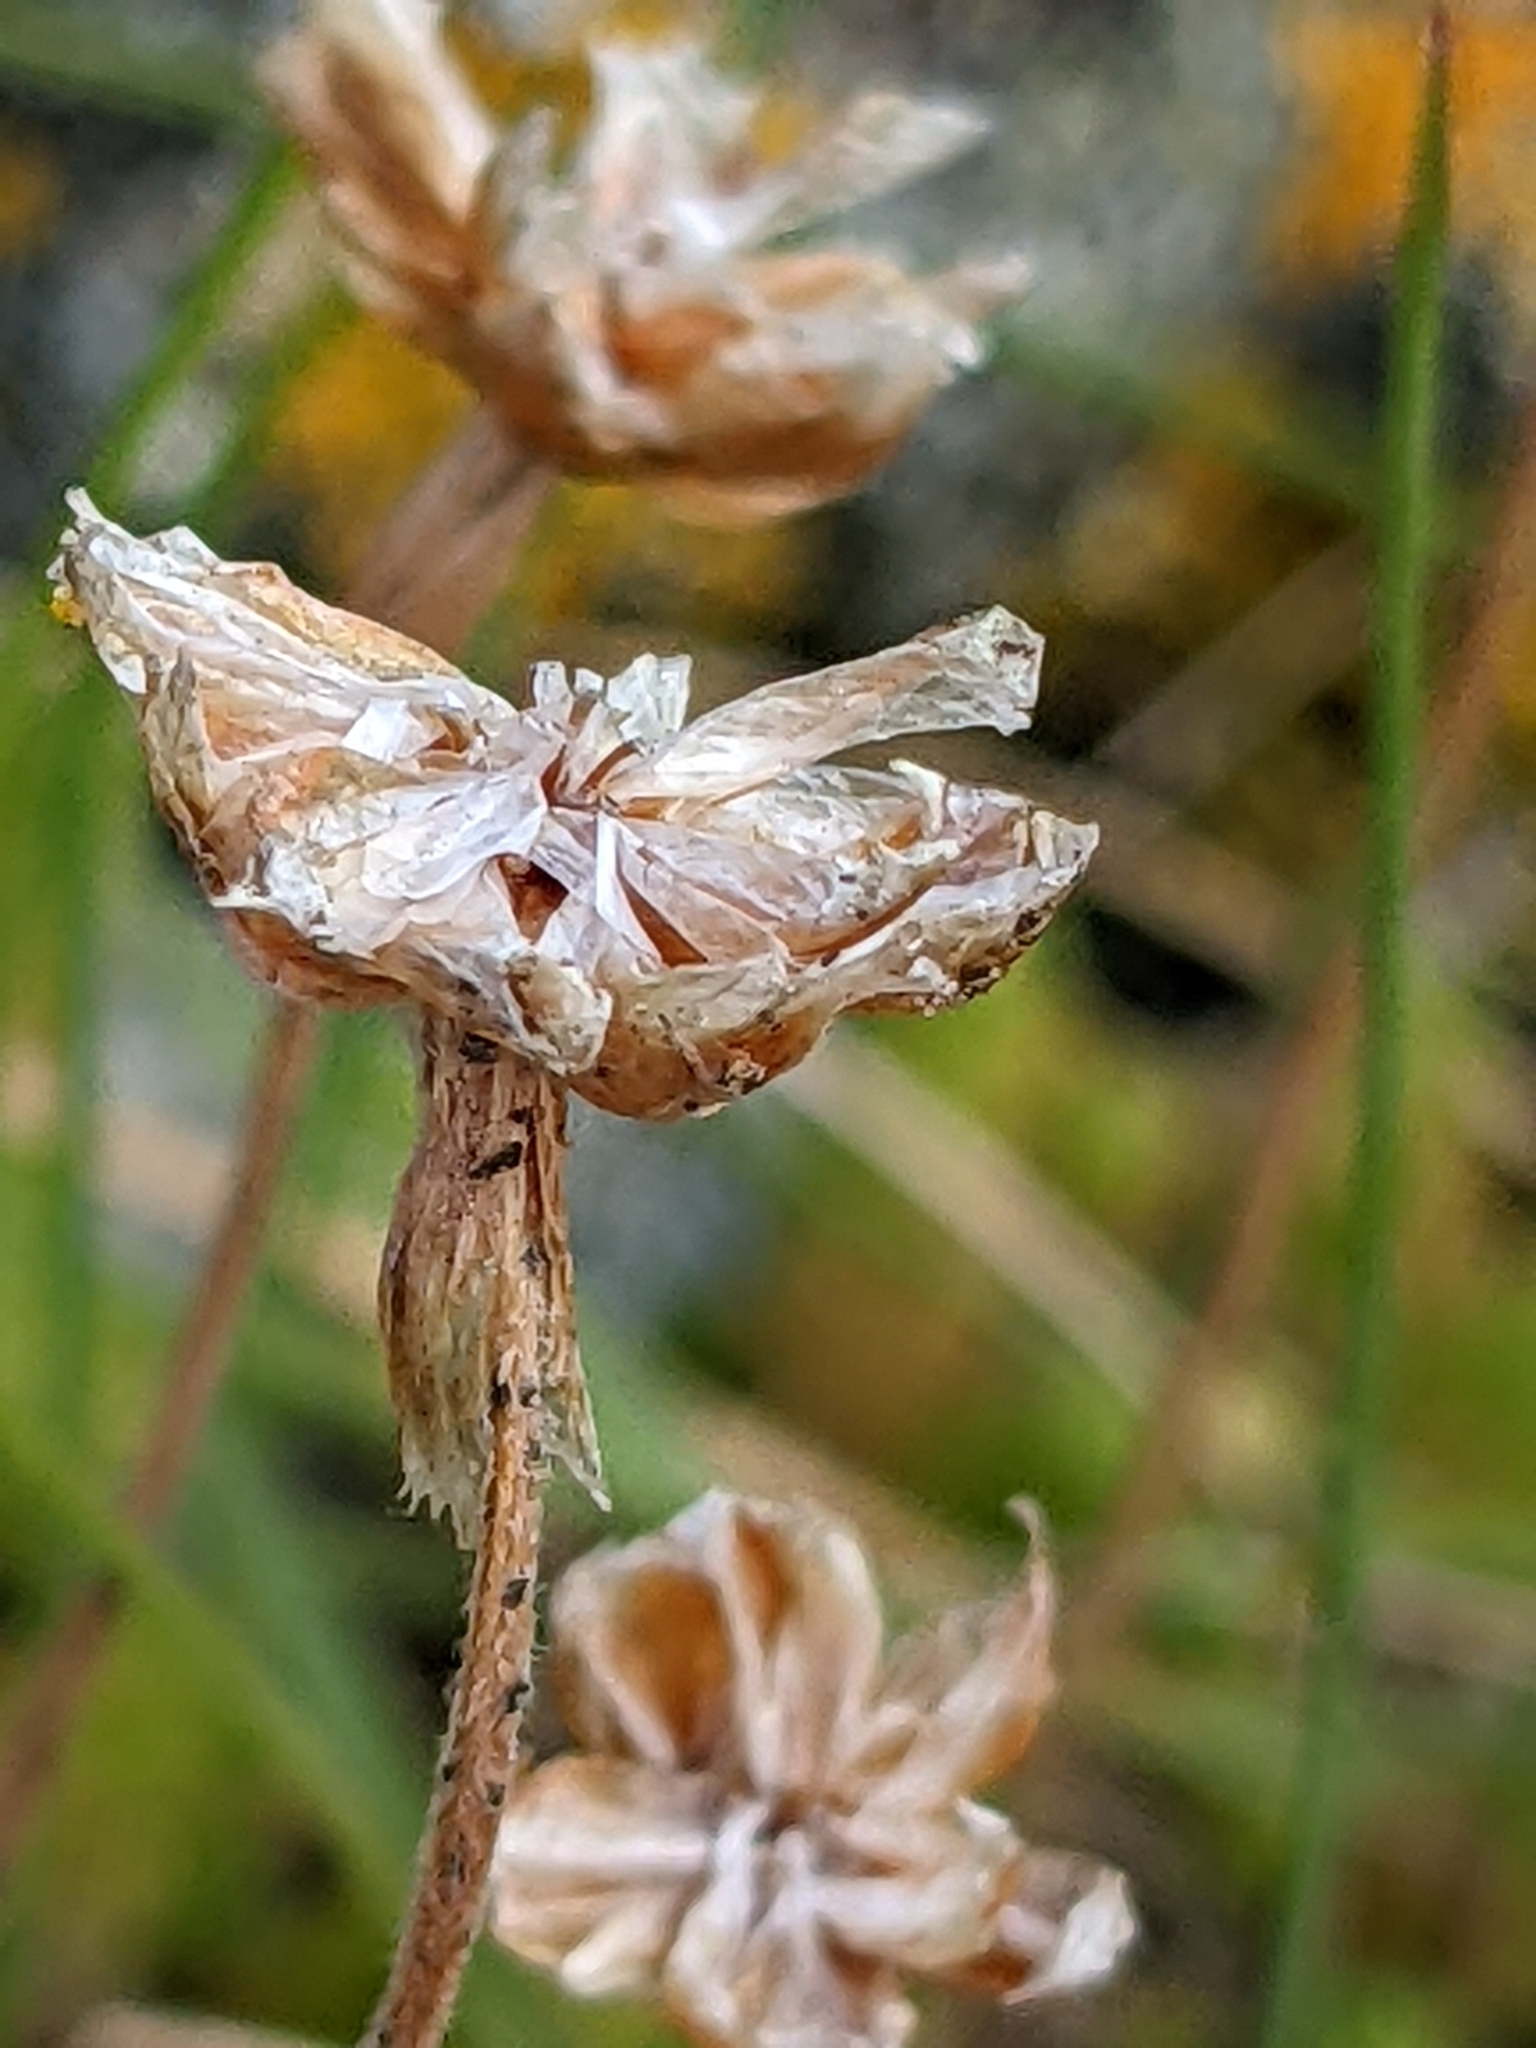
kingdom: Plantae
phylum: Tracheophyta
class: Magnoliopsida
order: Caryophyllales
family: Plumbaginaceae
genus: Armeria
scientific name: Armeria maritima
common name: Thrift
